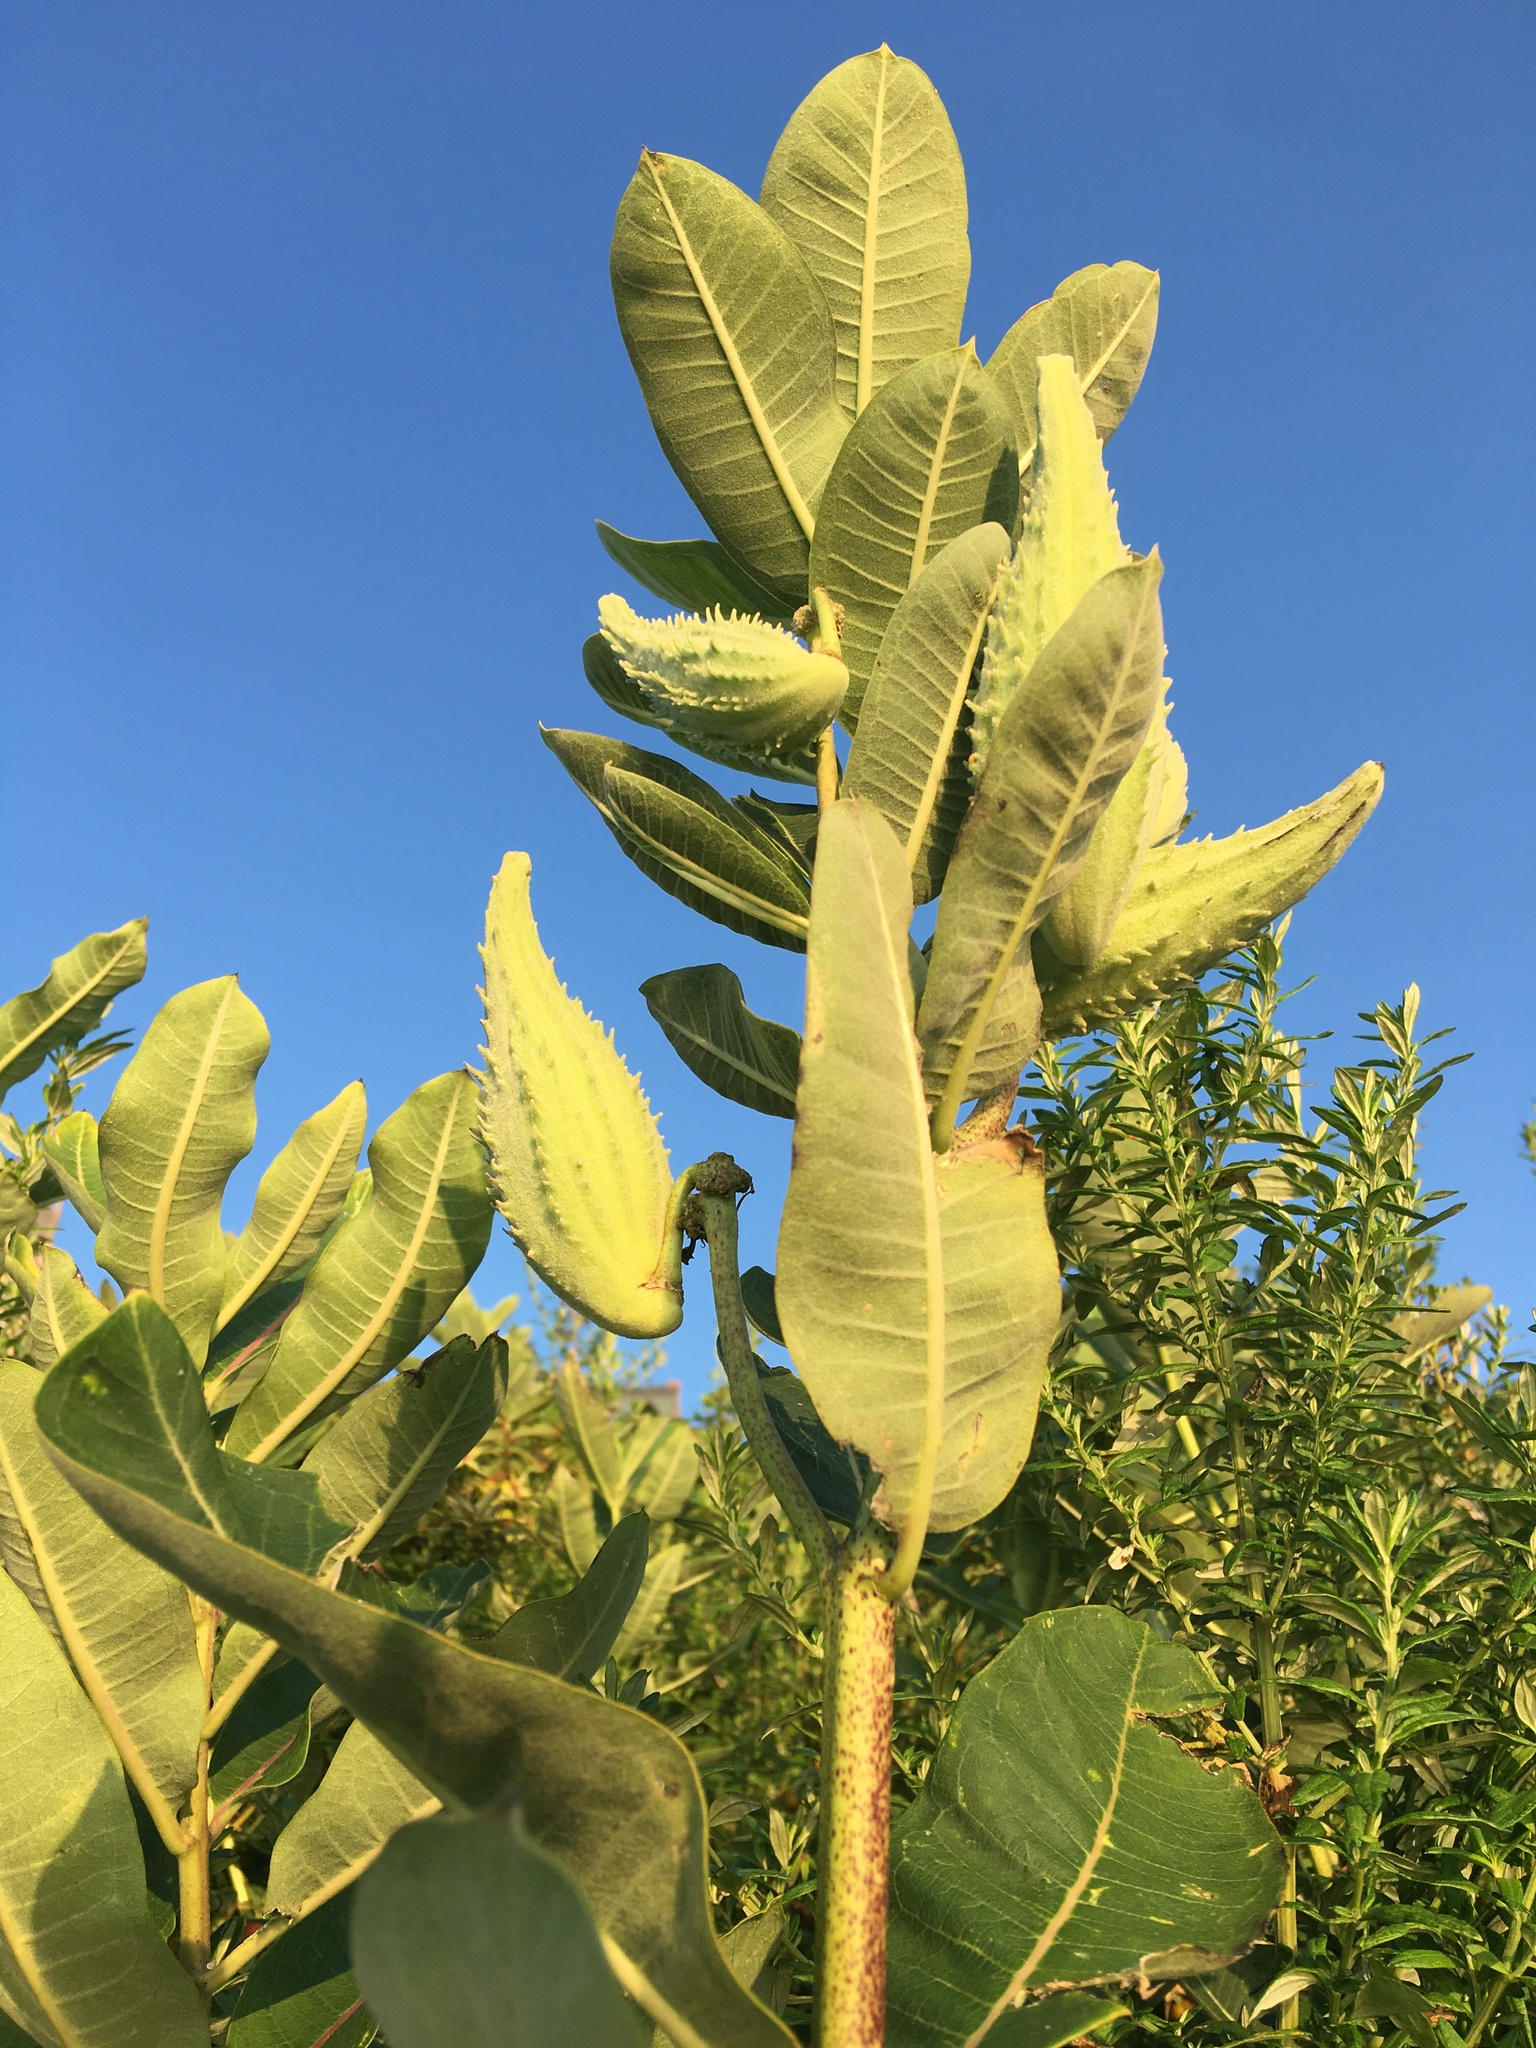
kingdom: Plantae
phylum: Tracheophyta
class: Magnoliopsida
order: Gentianales
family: Apocynaceae
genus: Asclepias
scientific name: Asclepias syriaca
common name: Common milkweed
